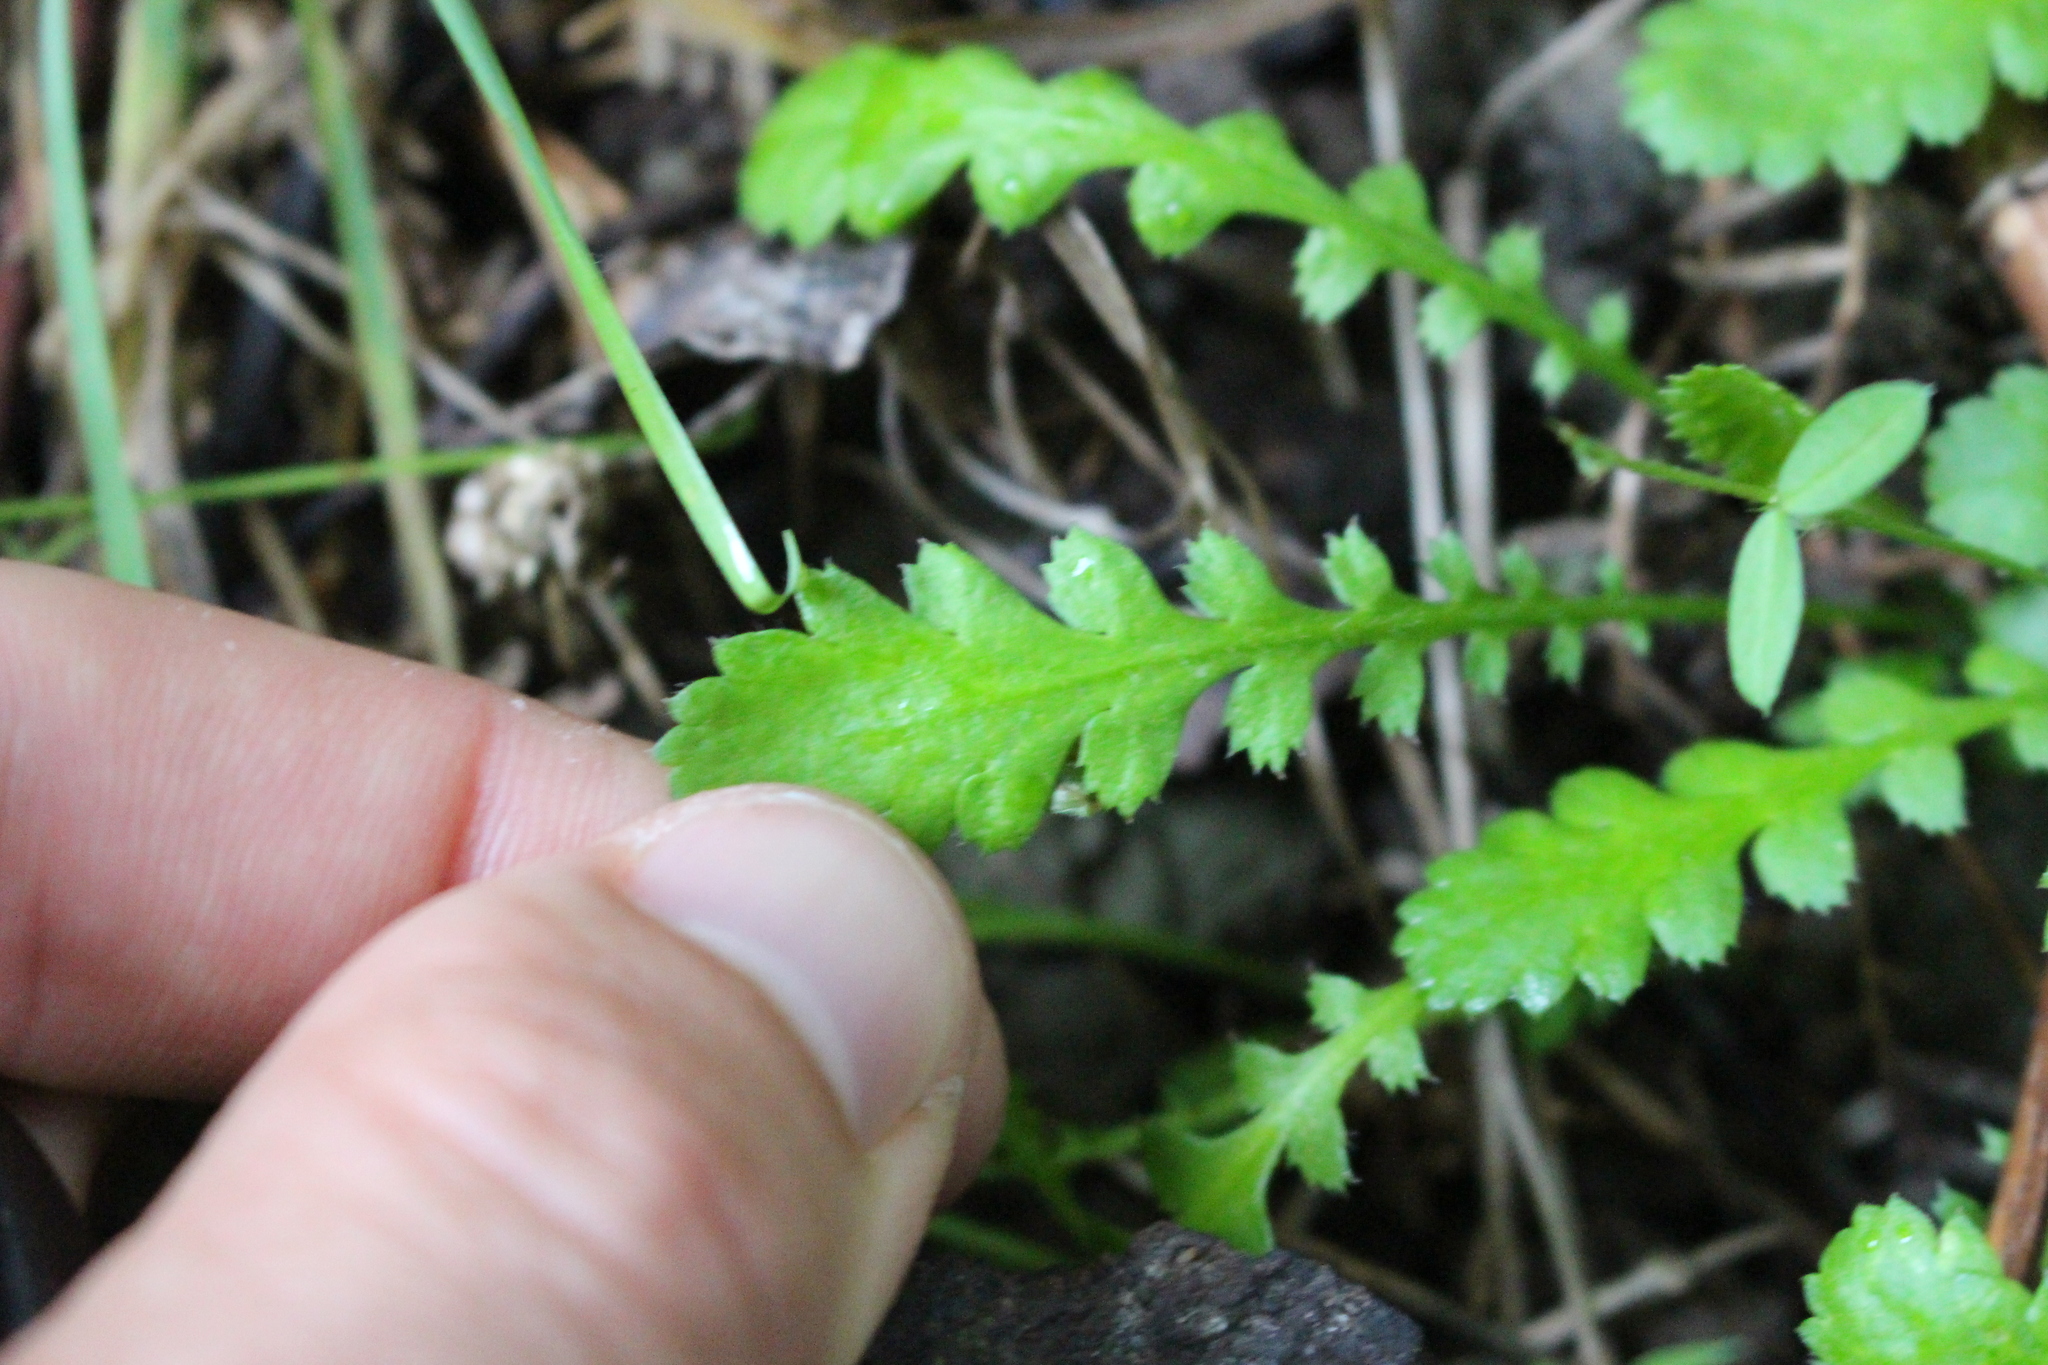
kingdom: Plantae
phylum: Tracheophyta
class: Magnoliopsida
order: Asterales
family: Asteraceae
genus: Leptinella
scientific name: Leptinella
